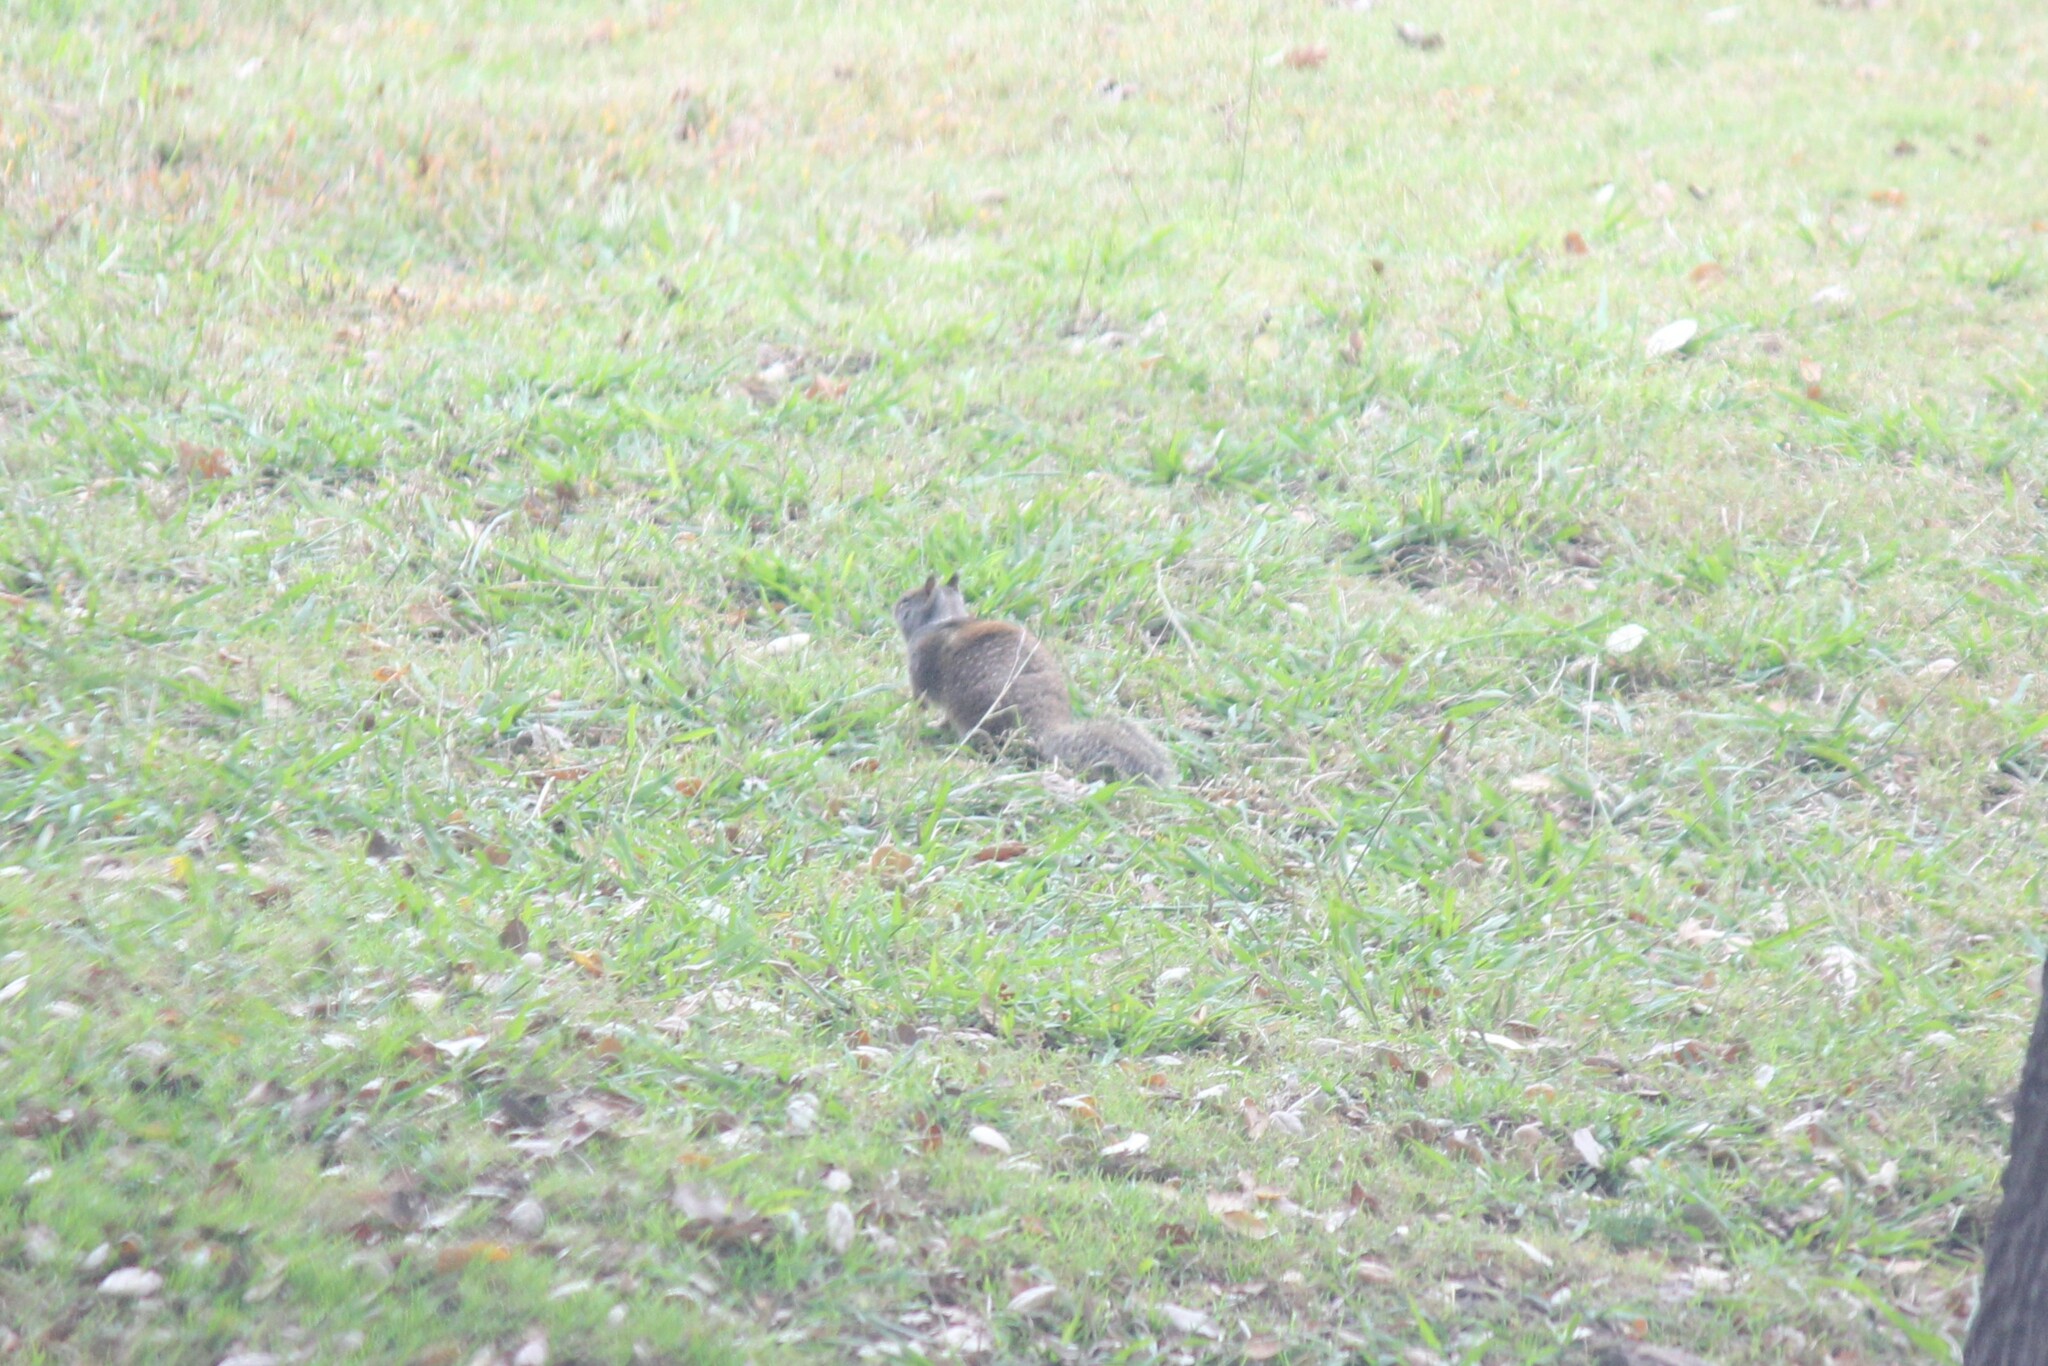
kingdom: Animalia
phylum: Chordata
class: Mammalia
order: Rodentia
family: Sciuridae
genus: Otospermophilus
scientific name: Otospermophilus beecheyi
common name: California ground squirrel
